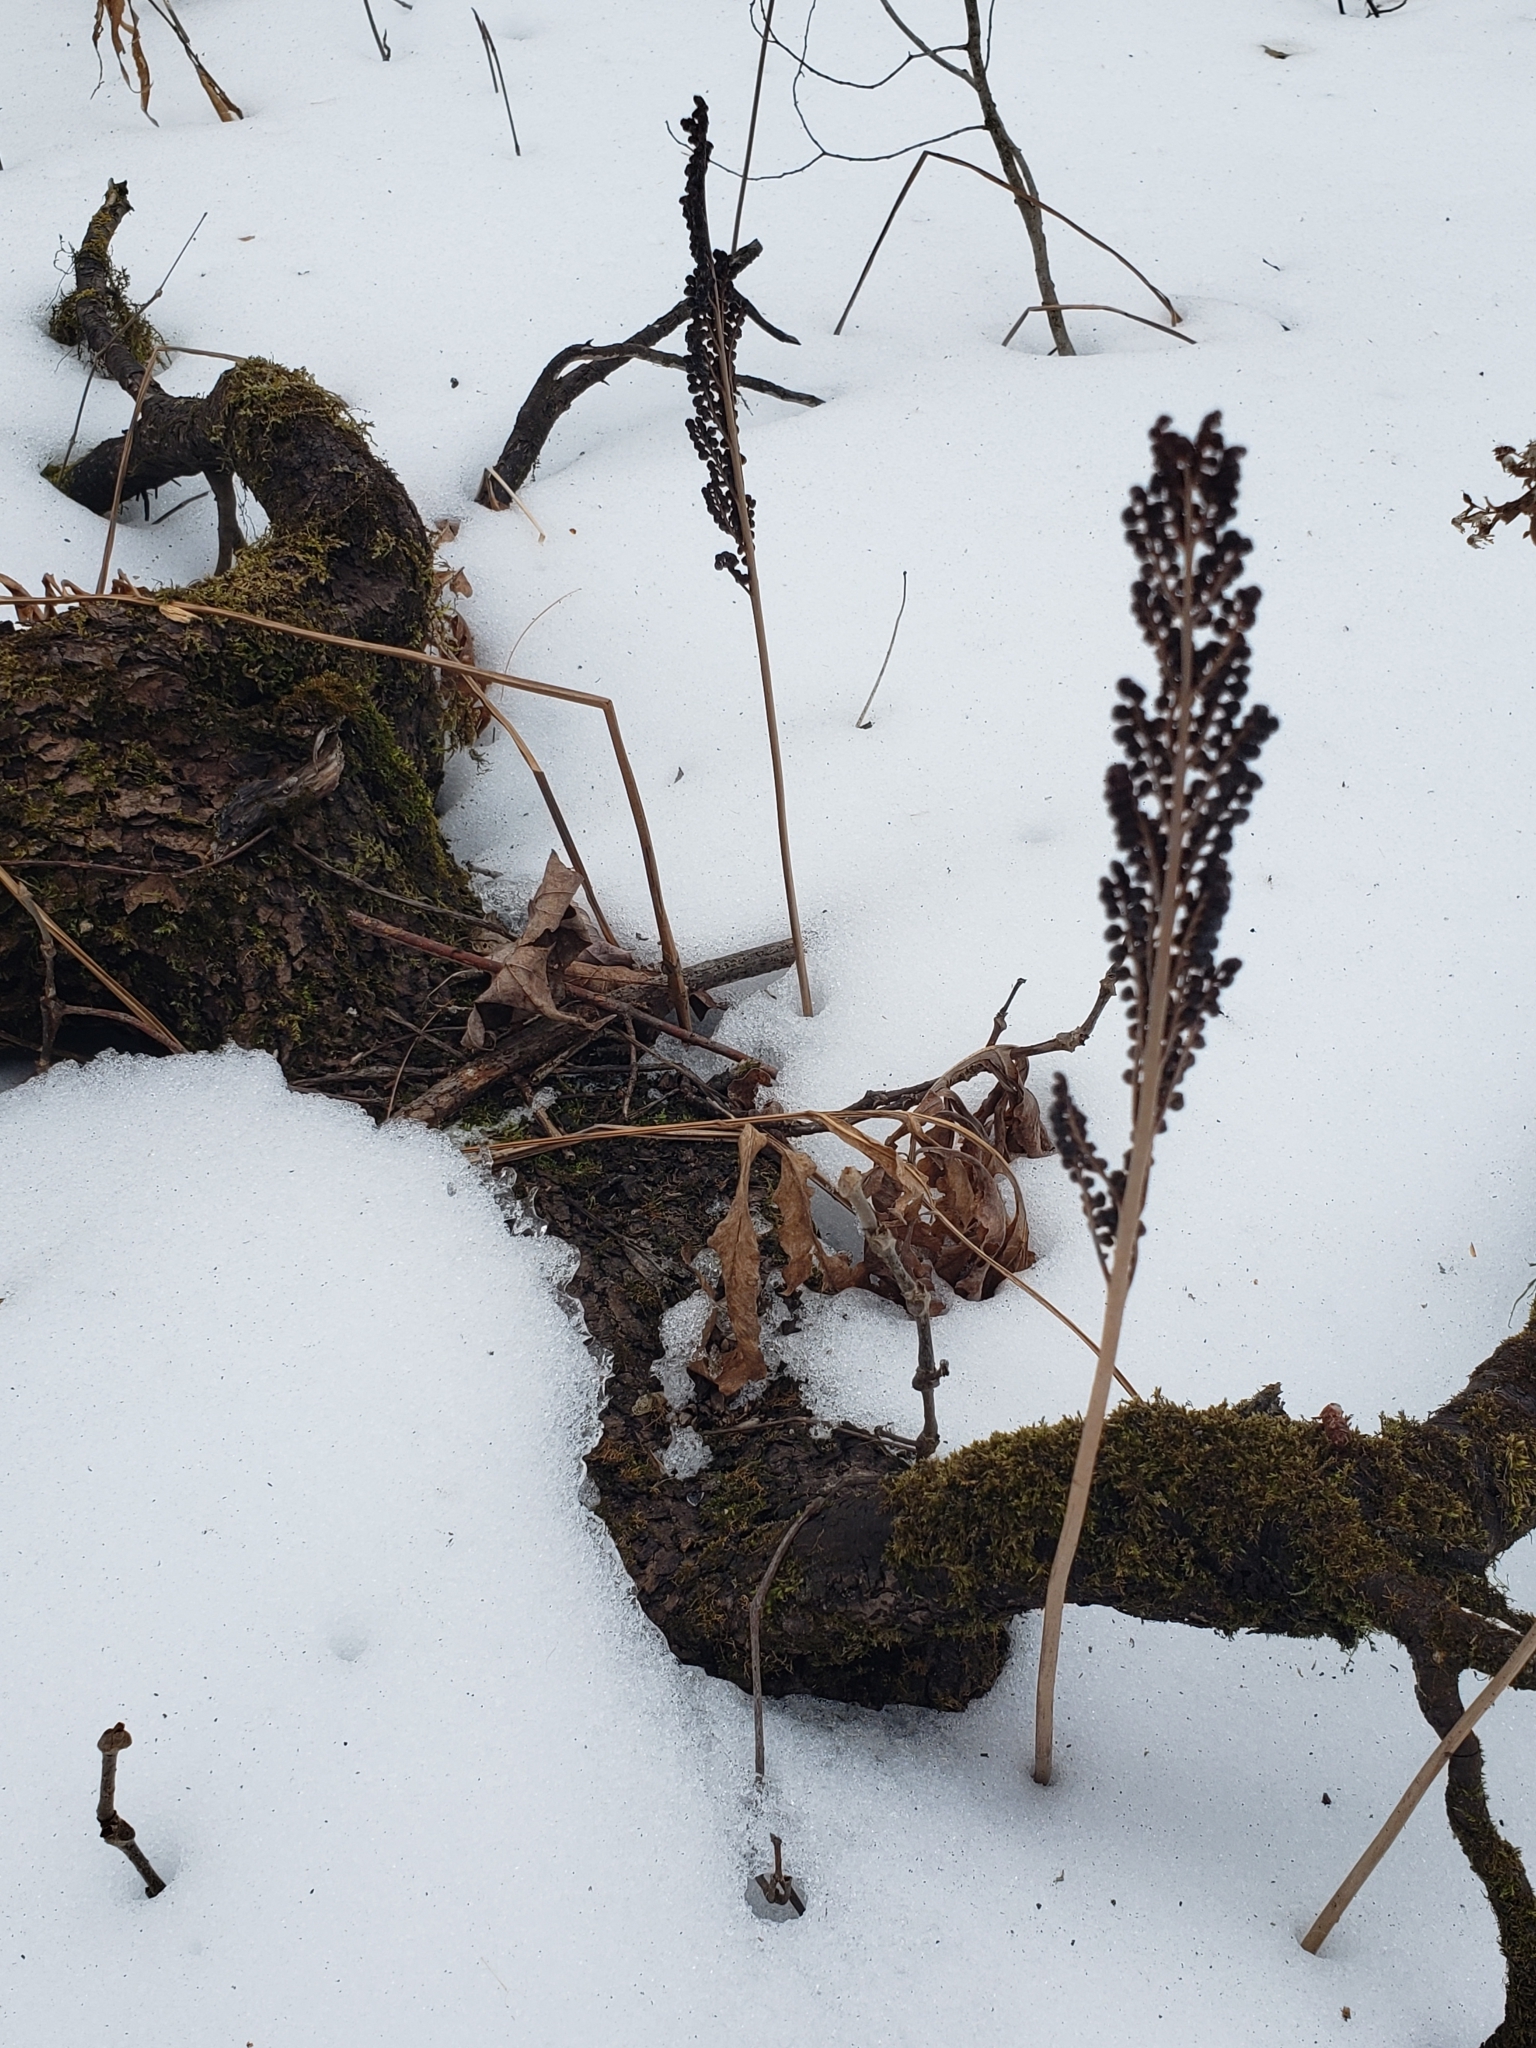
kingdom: Plantae
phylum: Tracheophyta
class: Polypodiopsida
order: Polypodiales
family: Onocleaceae
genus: Onoclea
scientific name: Onoclea sensibilis
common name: Sensitive fern
